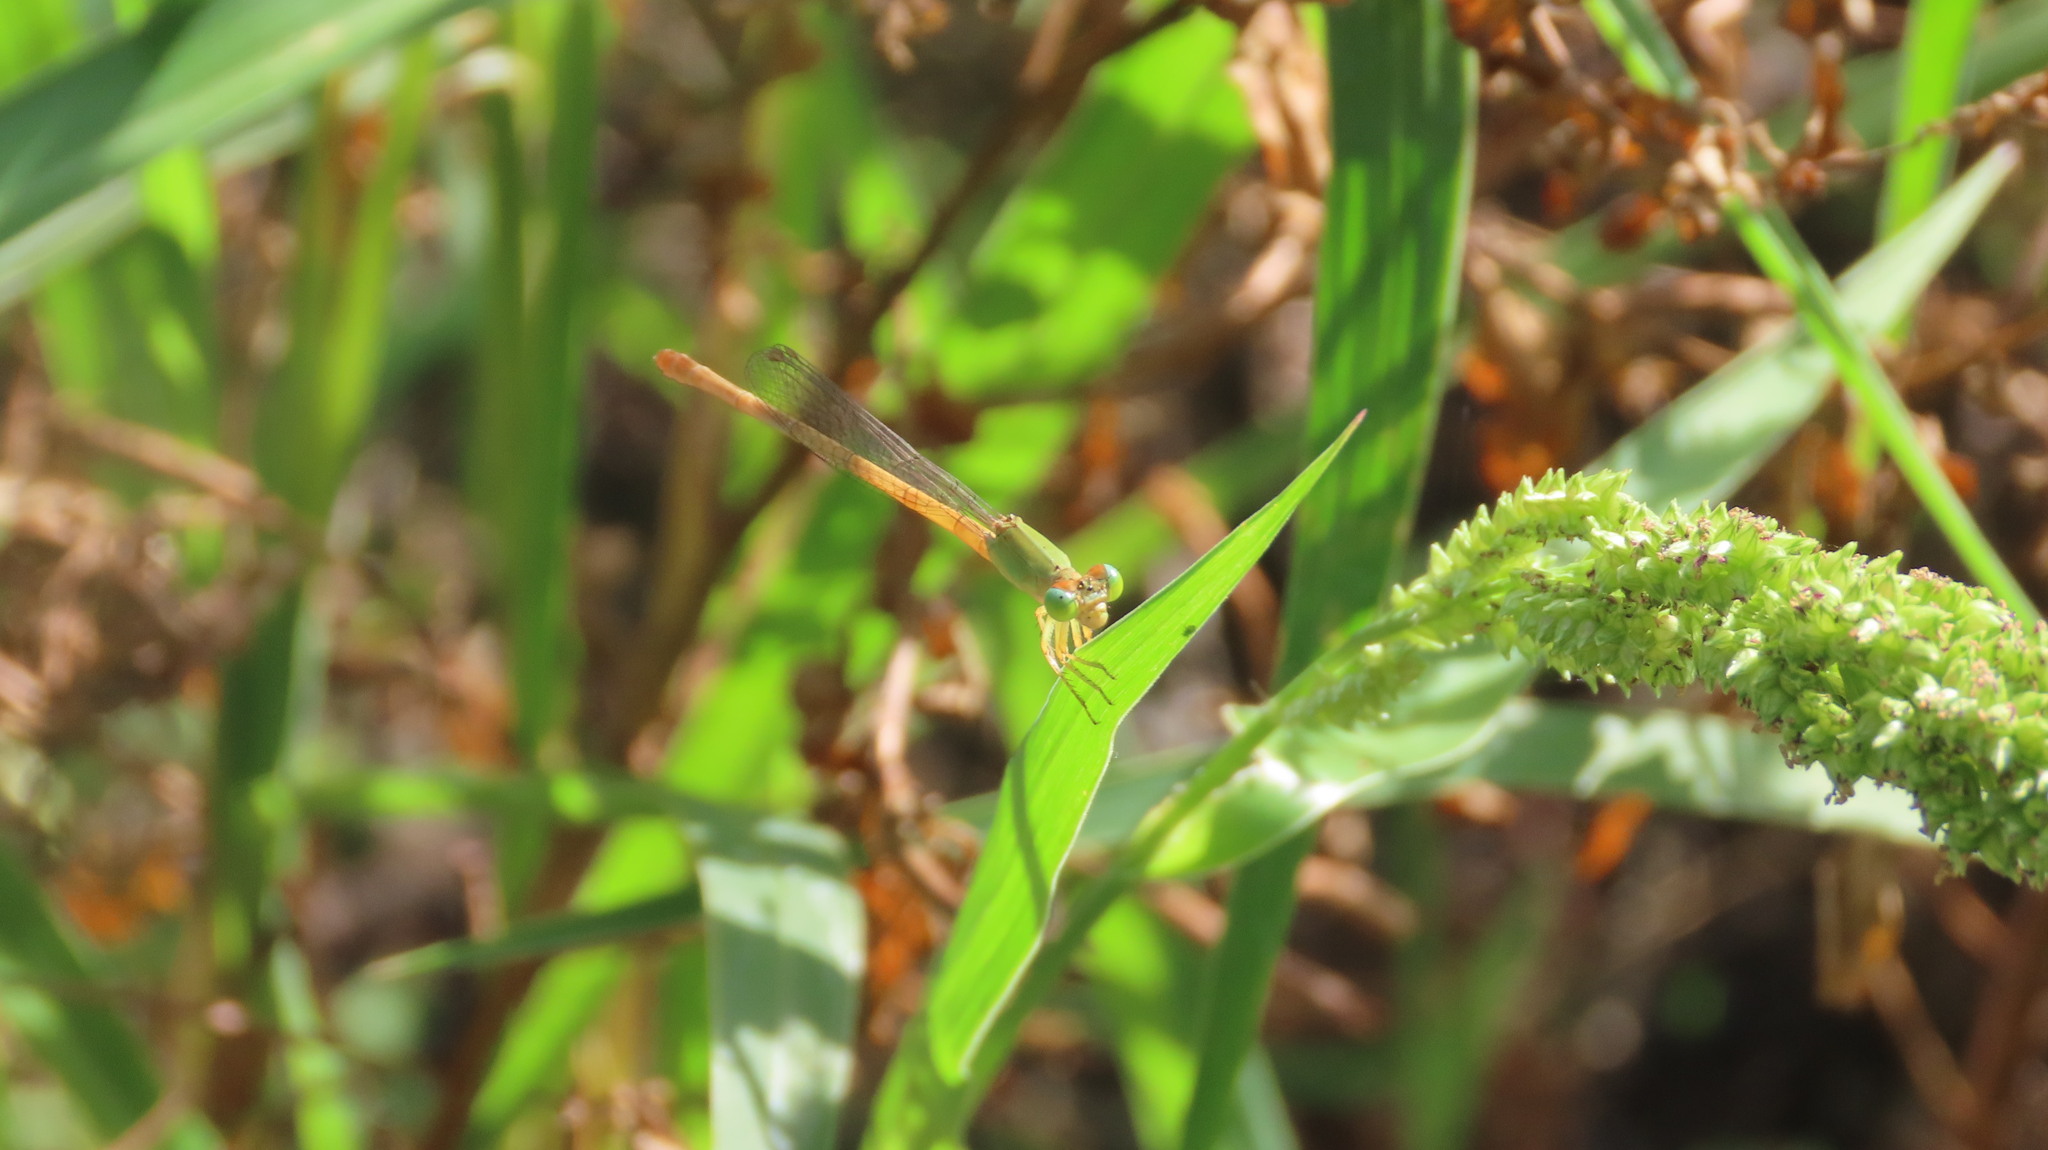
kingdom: Animalia
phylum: Arthropoda
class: Insecta
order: Odonata
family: Coenagrionidae
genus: Ceriagrion
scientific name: Ceriagrion coromandelianum
